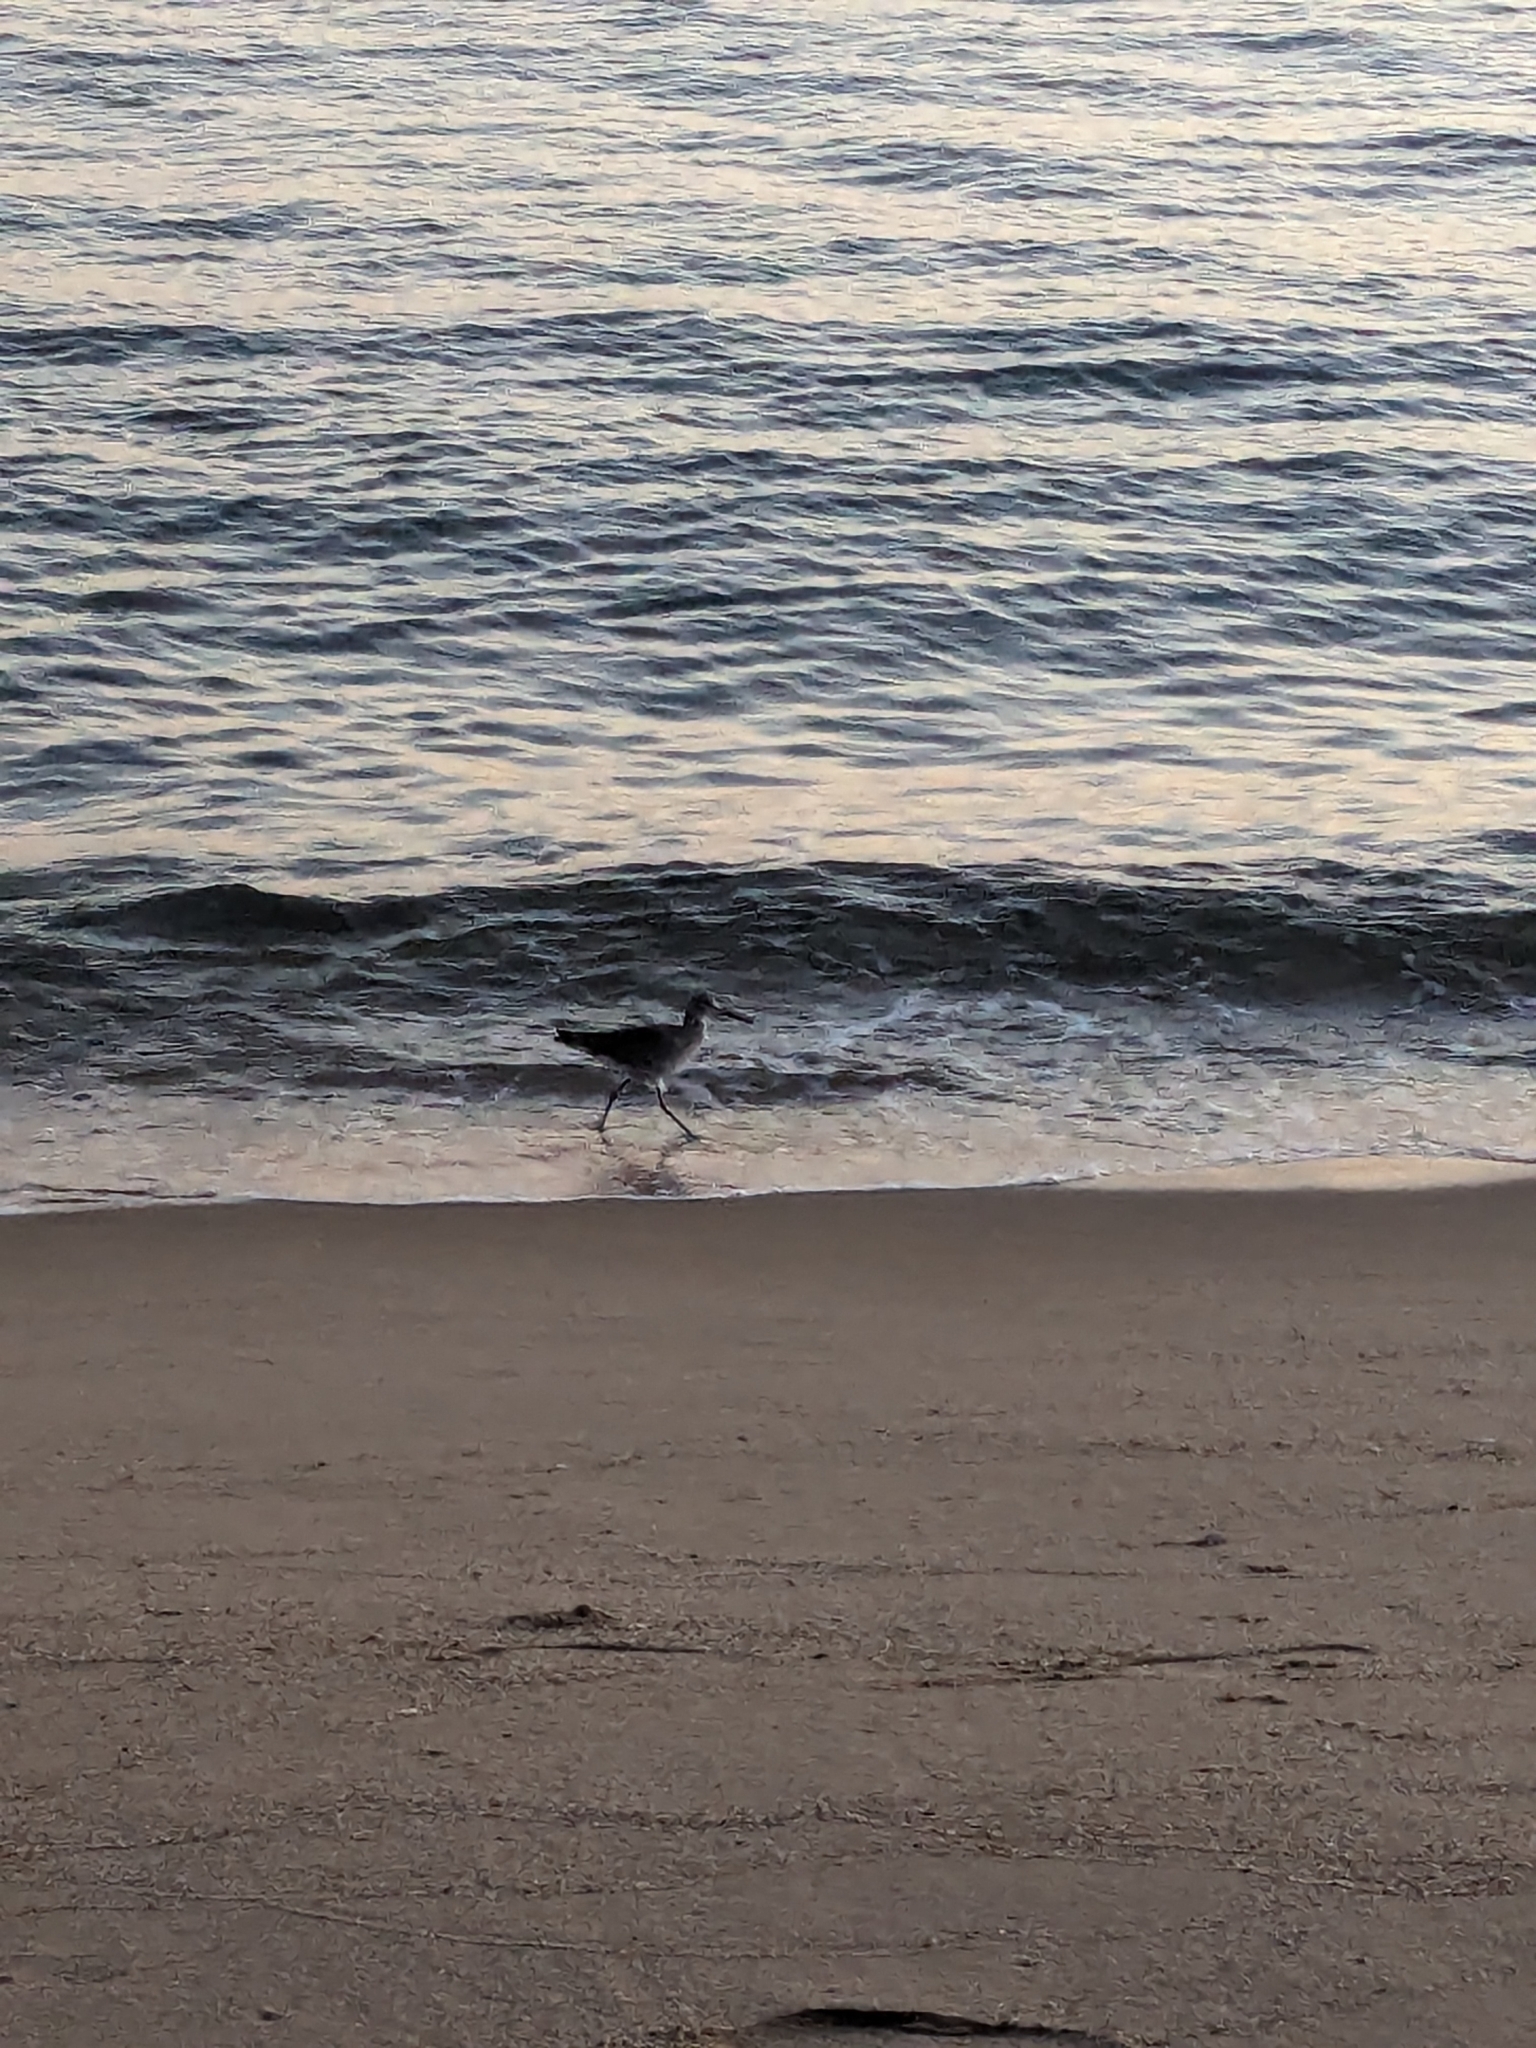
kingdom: Animalia
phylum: Chordata
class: Aves
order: Charadriiformes
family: Scolopacidae
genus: Tringa
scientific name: Tringa semipalmata
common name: Willet
